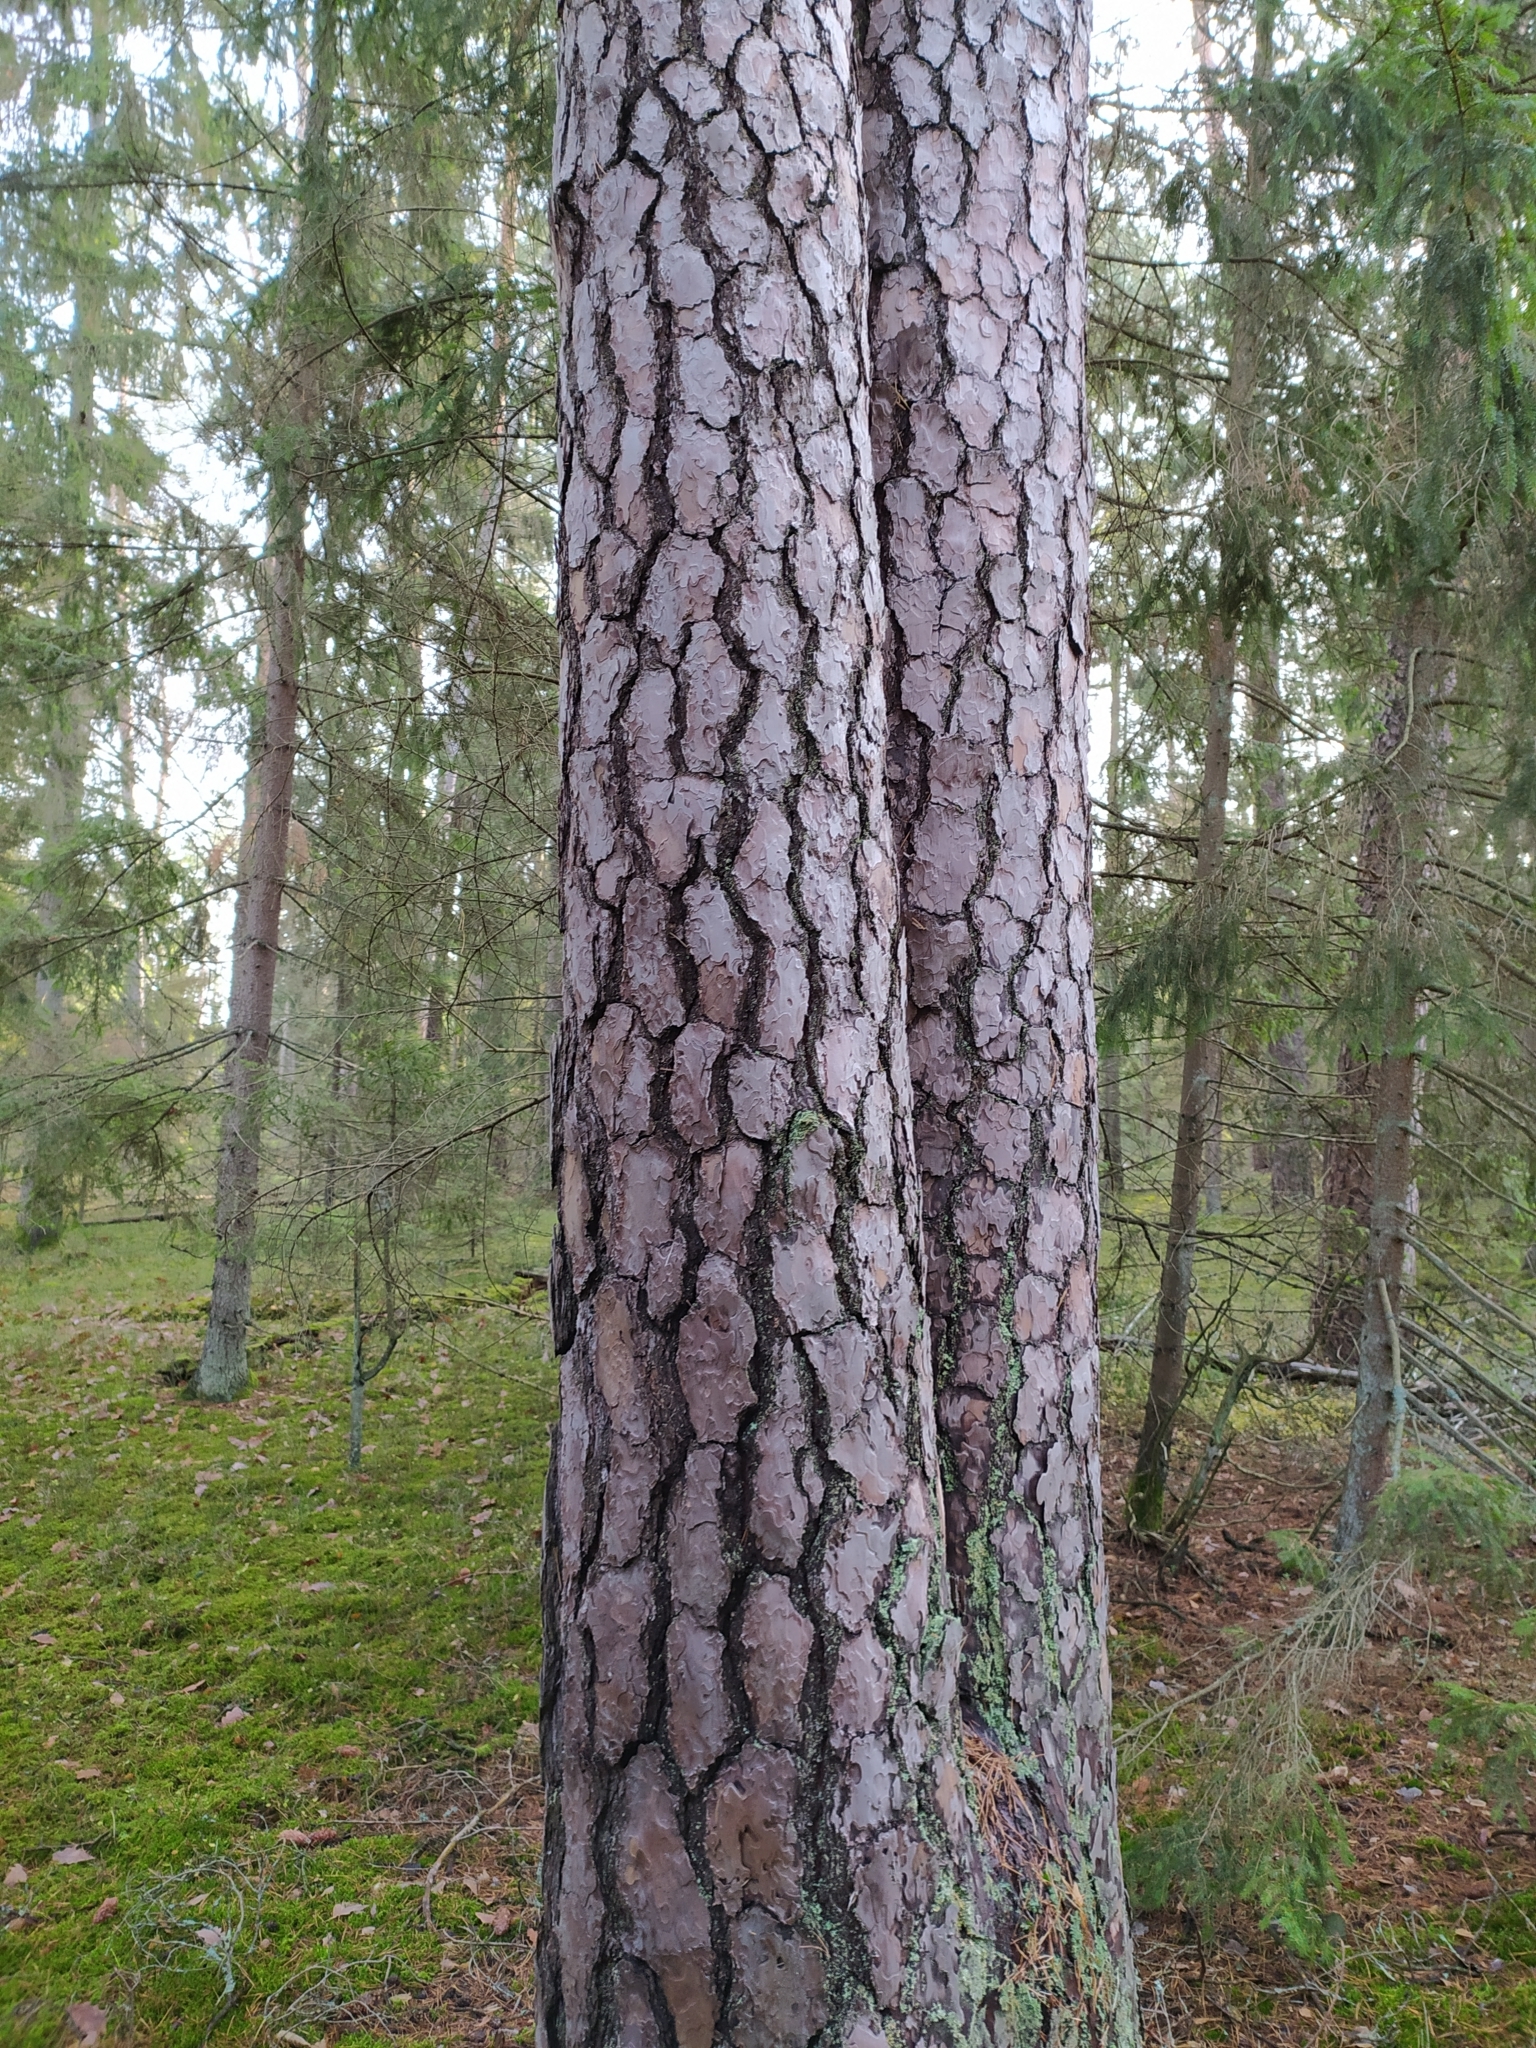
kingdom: Plantae
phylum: Tracheophyta
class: Pinopsida
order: Pinales
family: Pinaceae
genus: Pinus
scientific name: Pinus sylvestris
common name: Scots pine
